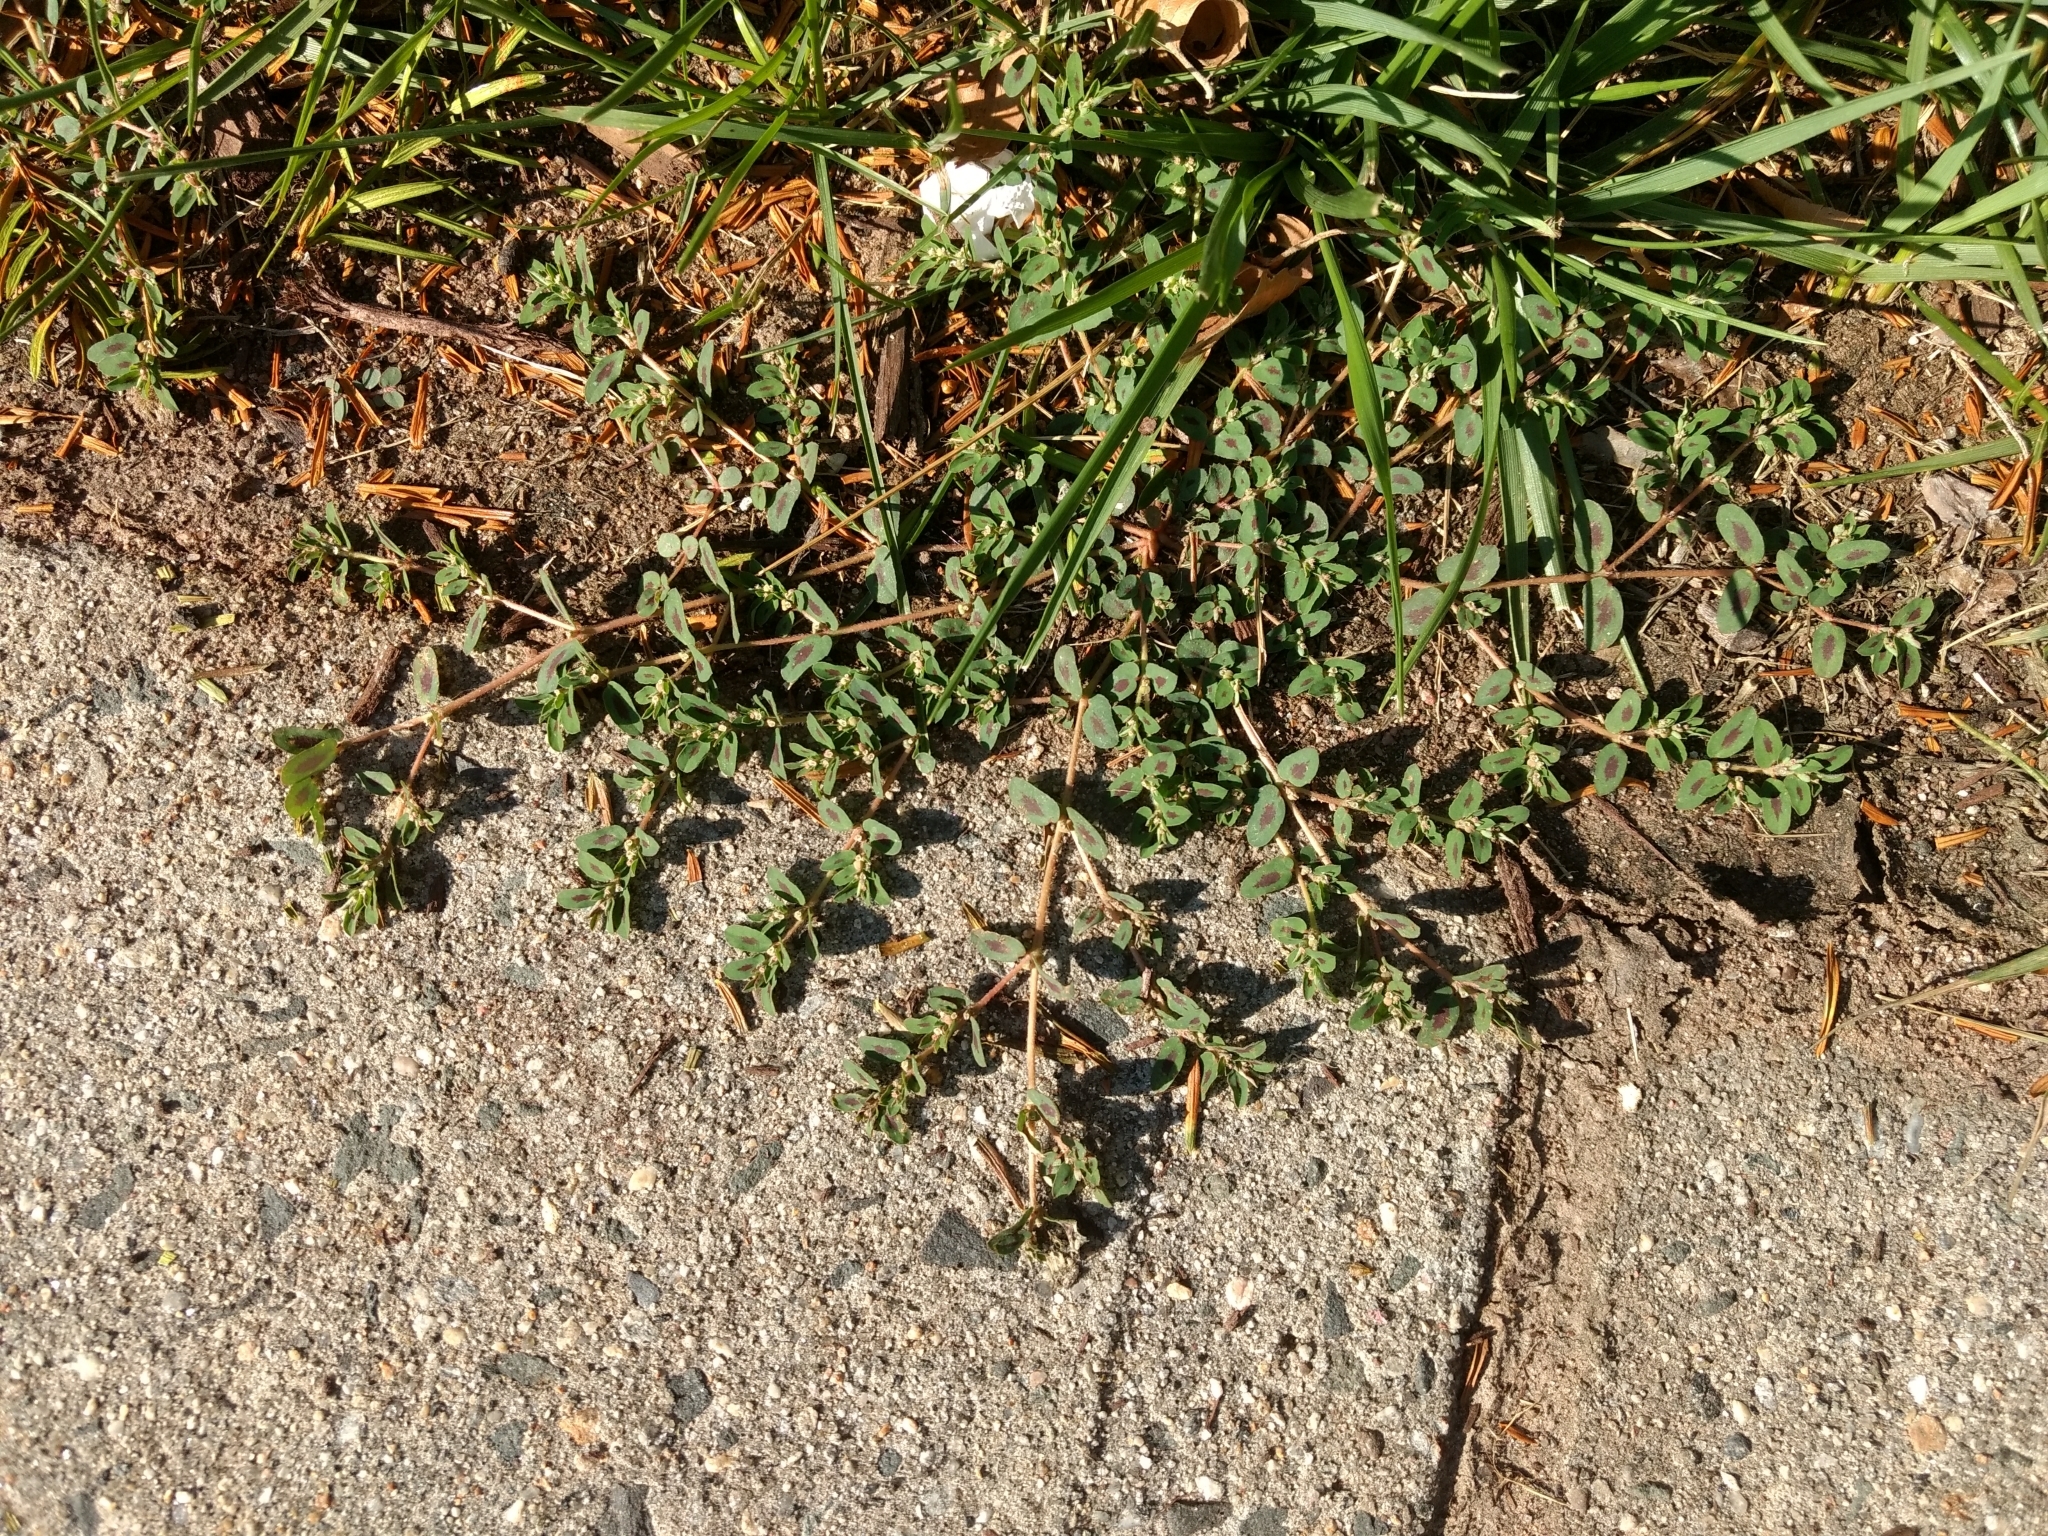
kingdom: Plantae
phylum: Tracheophyta
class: Magnoliopsida
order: Malpighiales
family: Euphorbiaceae
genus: Euphorbia
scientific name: Euphorbia maculata
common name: Spotted spurge
